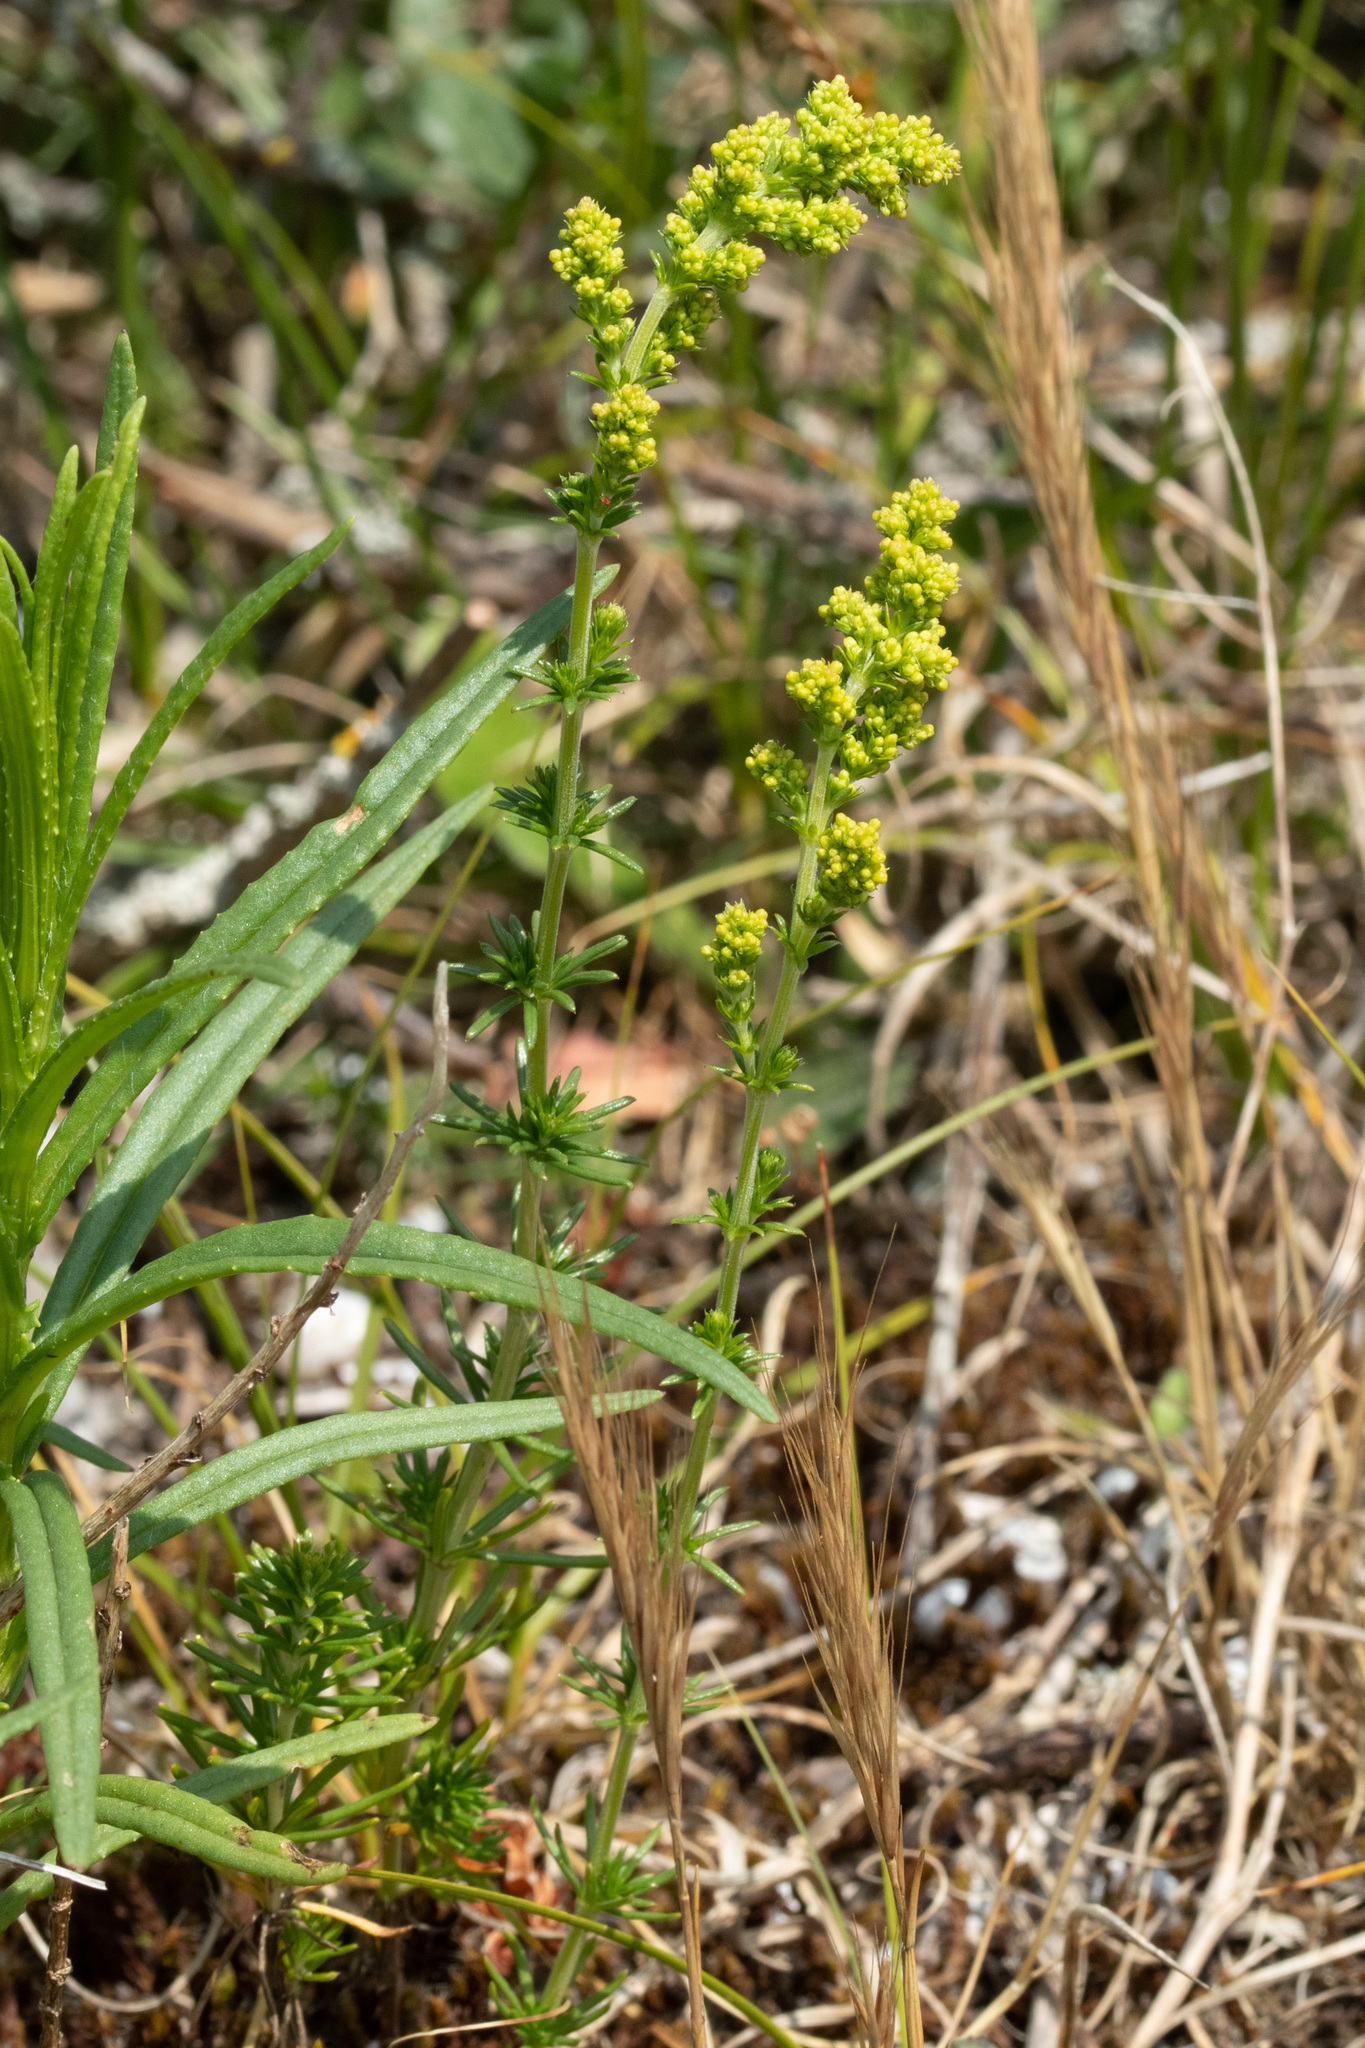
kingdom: Plantae
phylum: Tracheophyta
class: Magnoliopsida
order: Gentianales
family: Rubiaceae
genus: Galium
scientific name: Galium verum
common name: Lady's bedstraw
